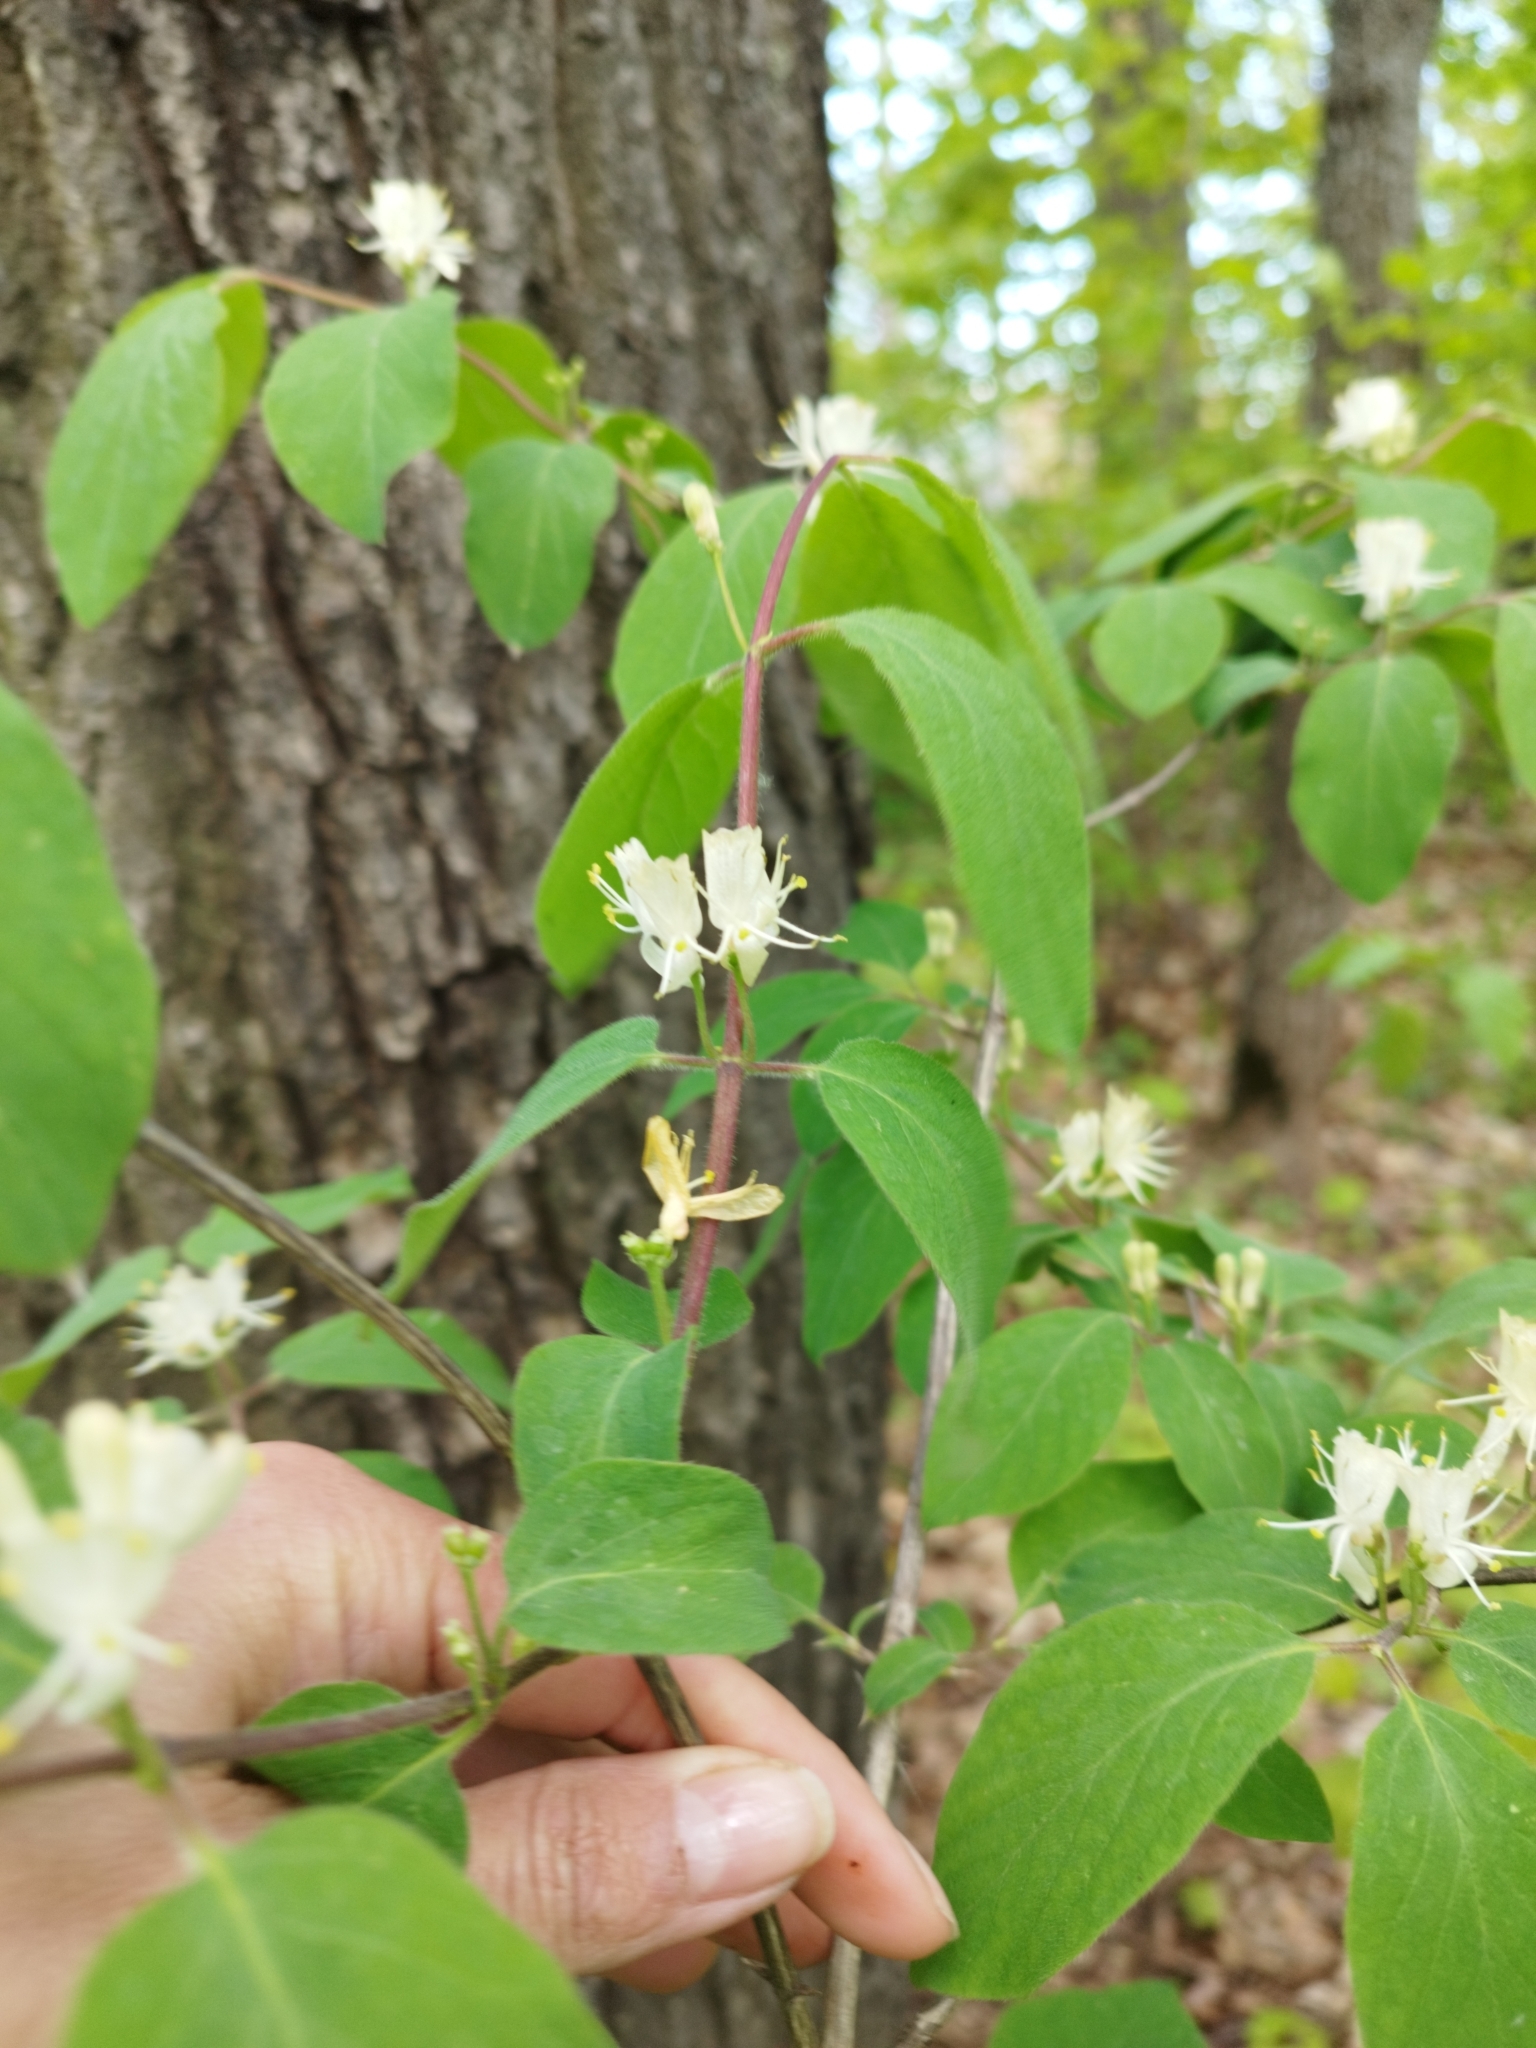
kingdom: Plantae
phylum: Tracheophyta
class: Magnoliopsida
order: Dipsacales
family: Caprifoliaceae
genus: Lonicera
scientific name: Lonicera xylosteum
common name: Fly honeysuckle
